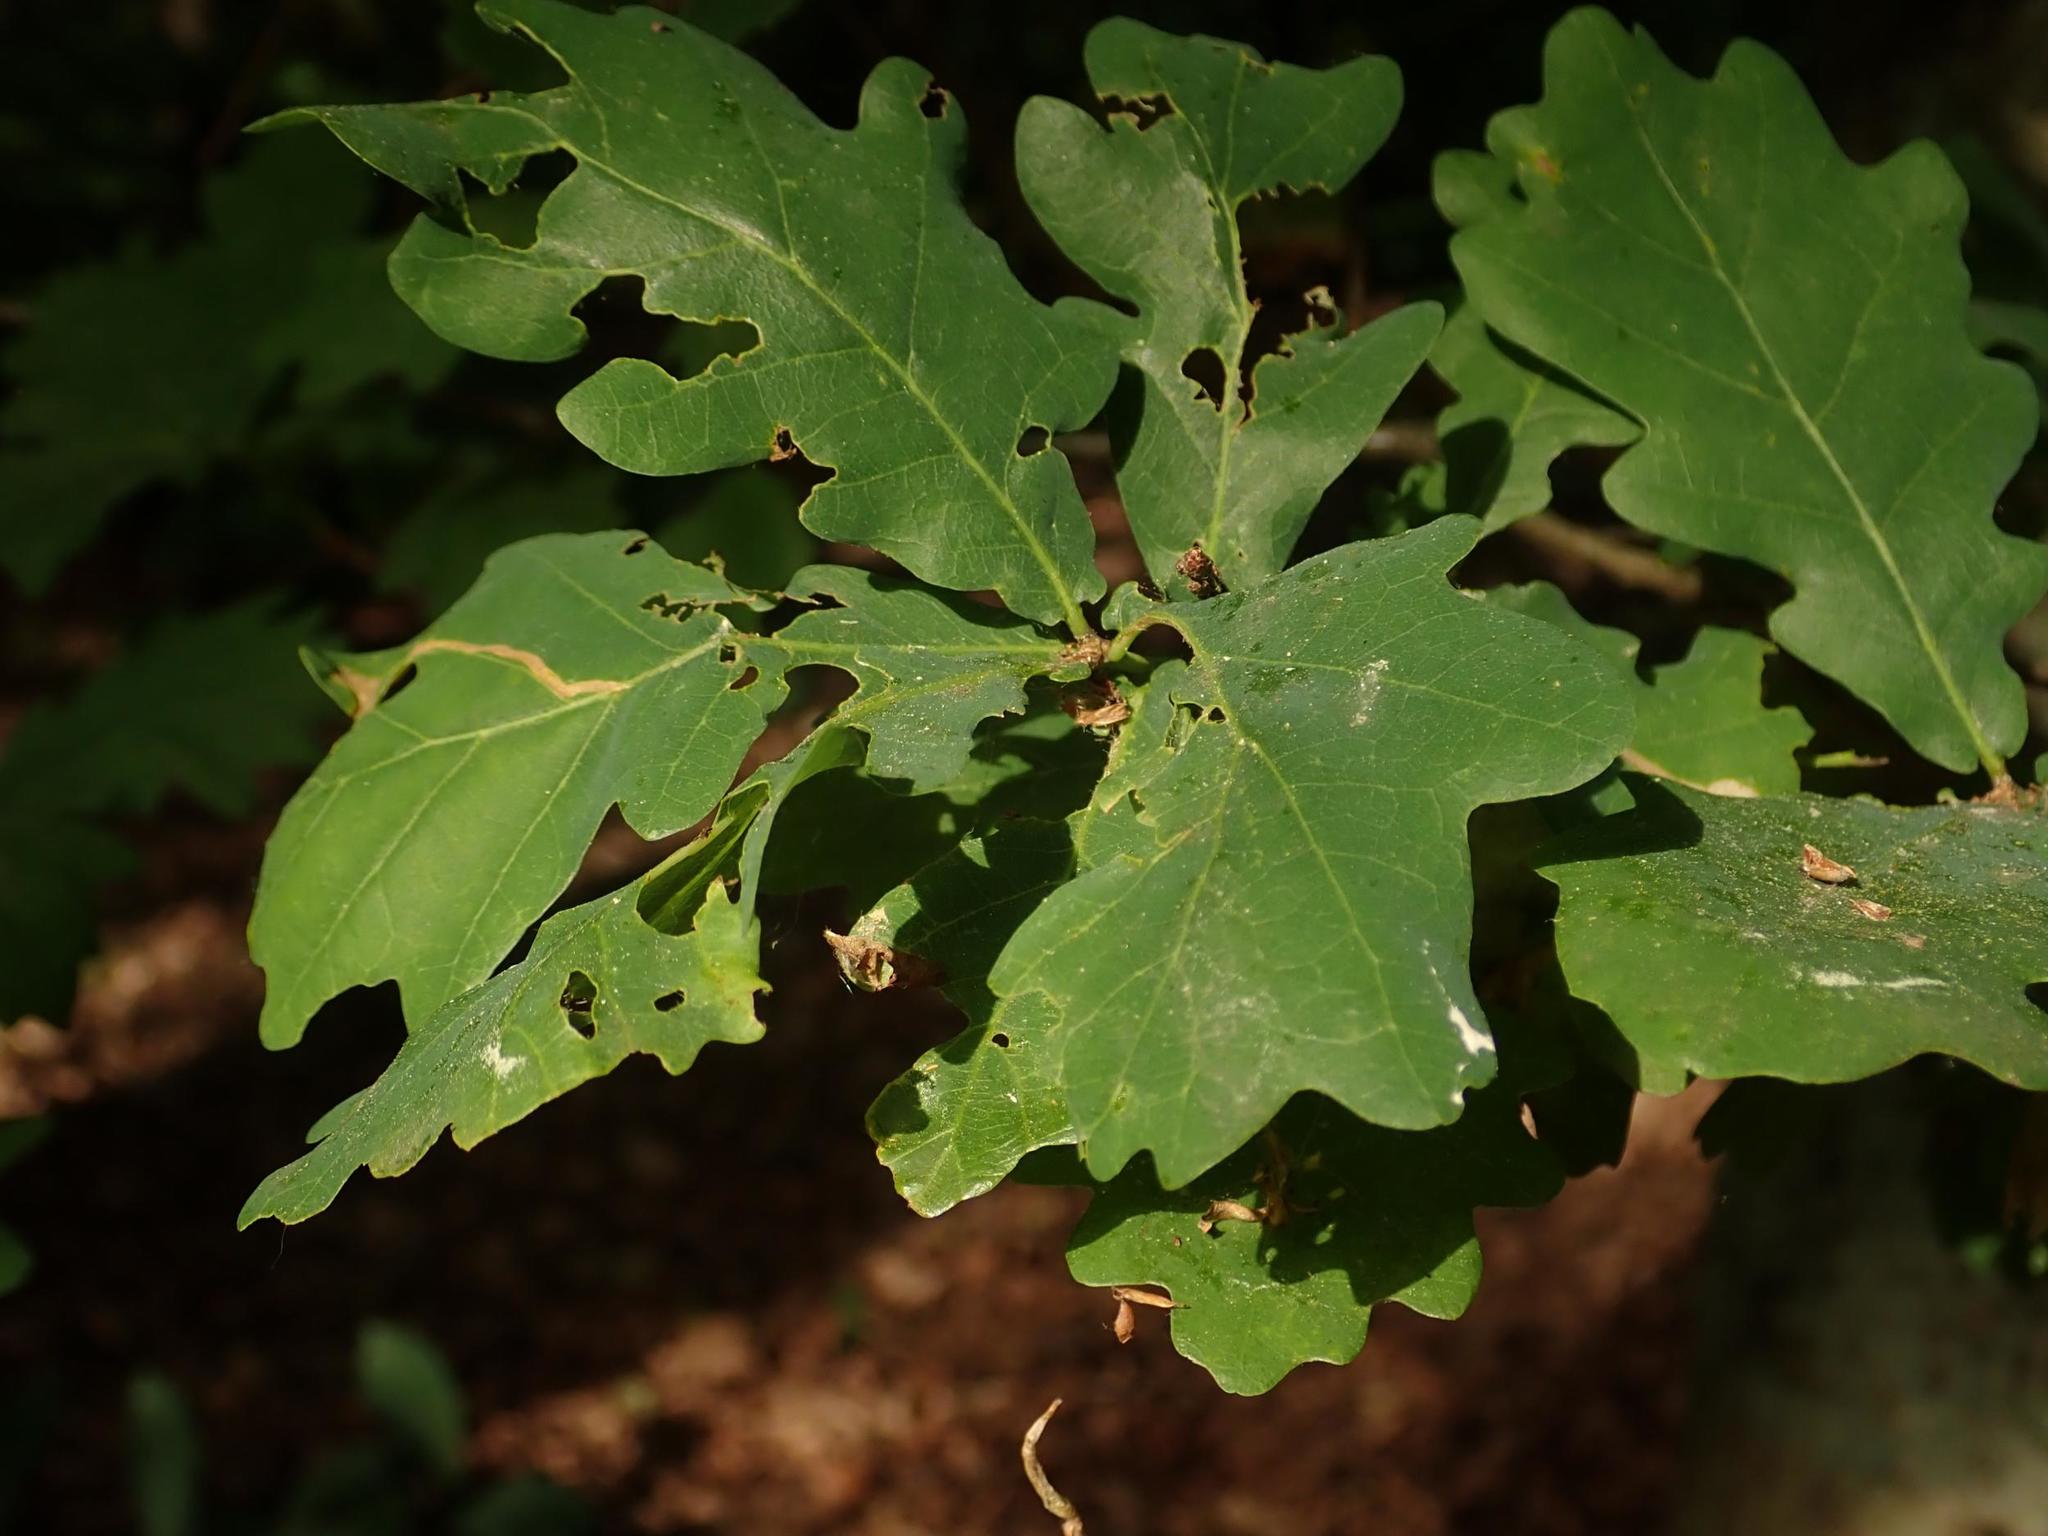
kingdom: Plantae
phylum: Tracheophyta
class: Magnoliopsida
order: Fagales
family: Fagaceae
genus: Quercus
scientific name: Quercus robur
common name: Pedunculate oak
